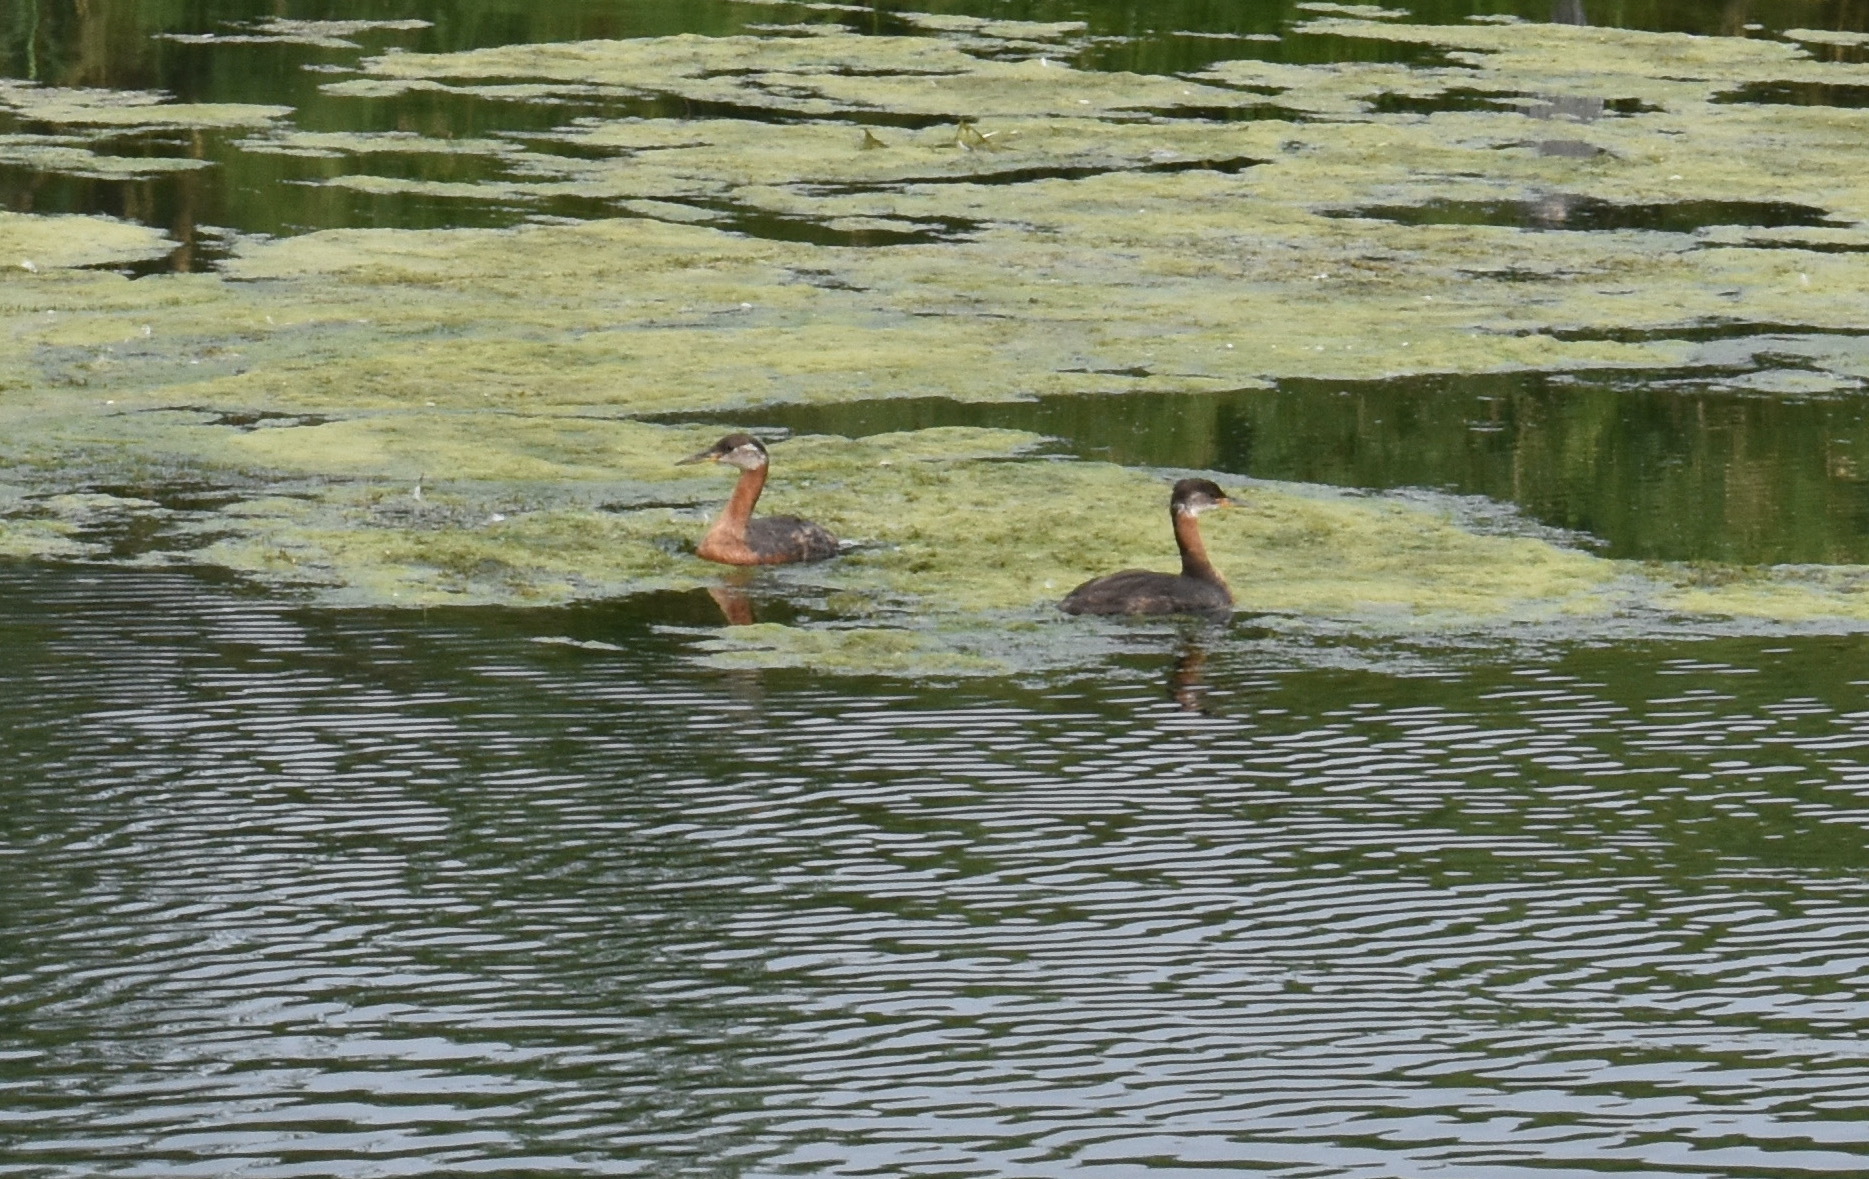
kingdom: Animalia
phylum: Chordata
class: Aves
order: Podicipediformes
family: Podicipedidae
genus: Podiceps
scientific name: Podiceps grisegena
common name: Red-necked grebe
